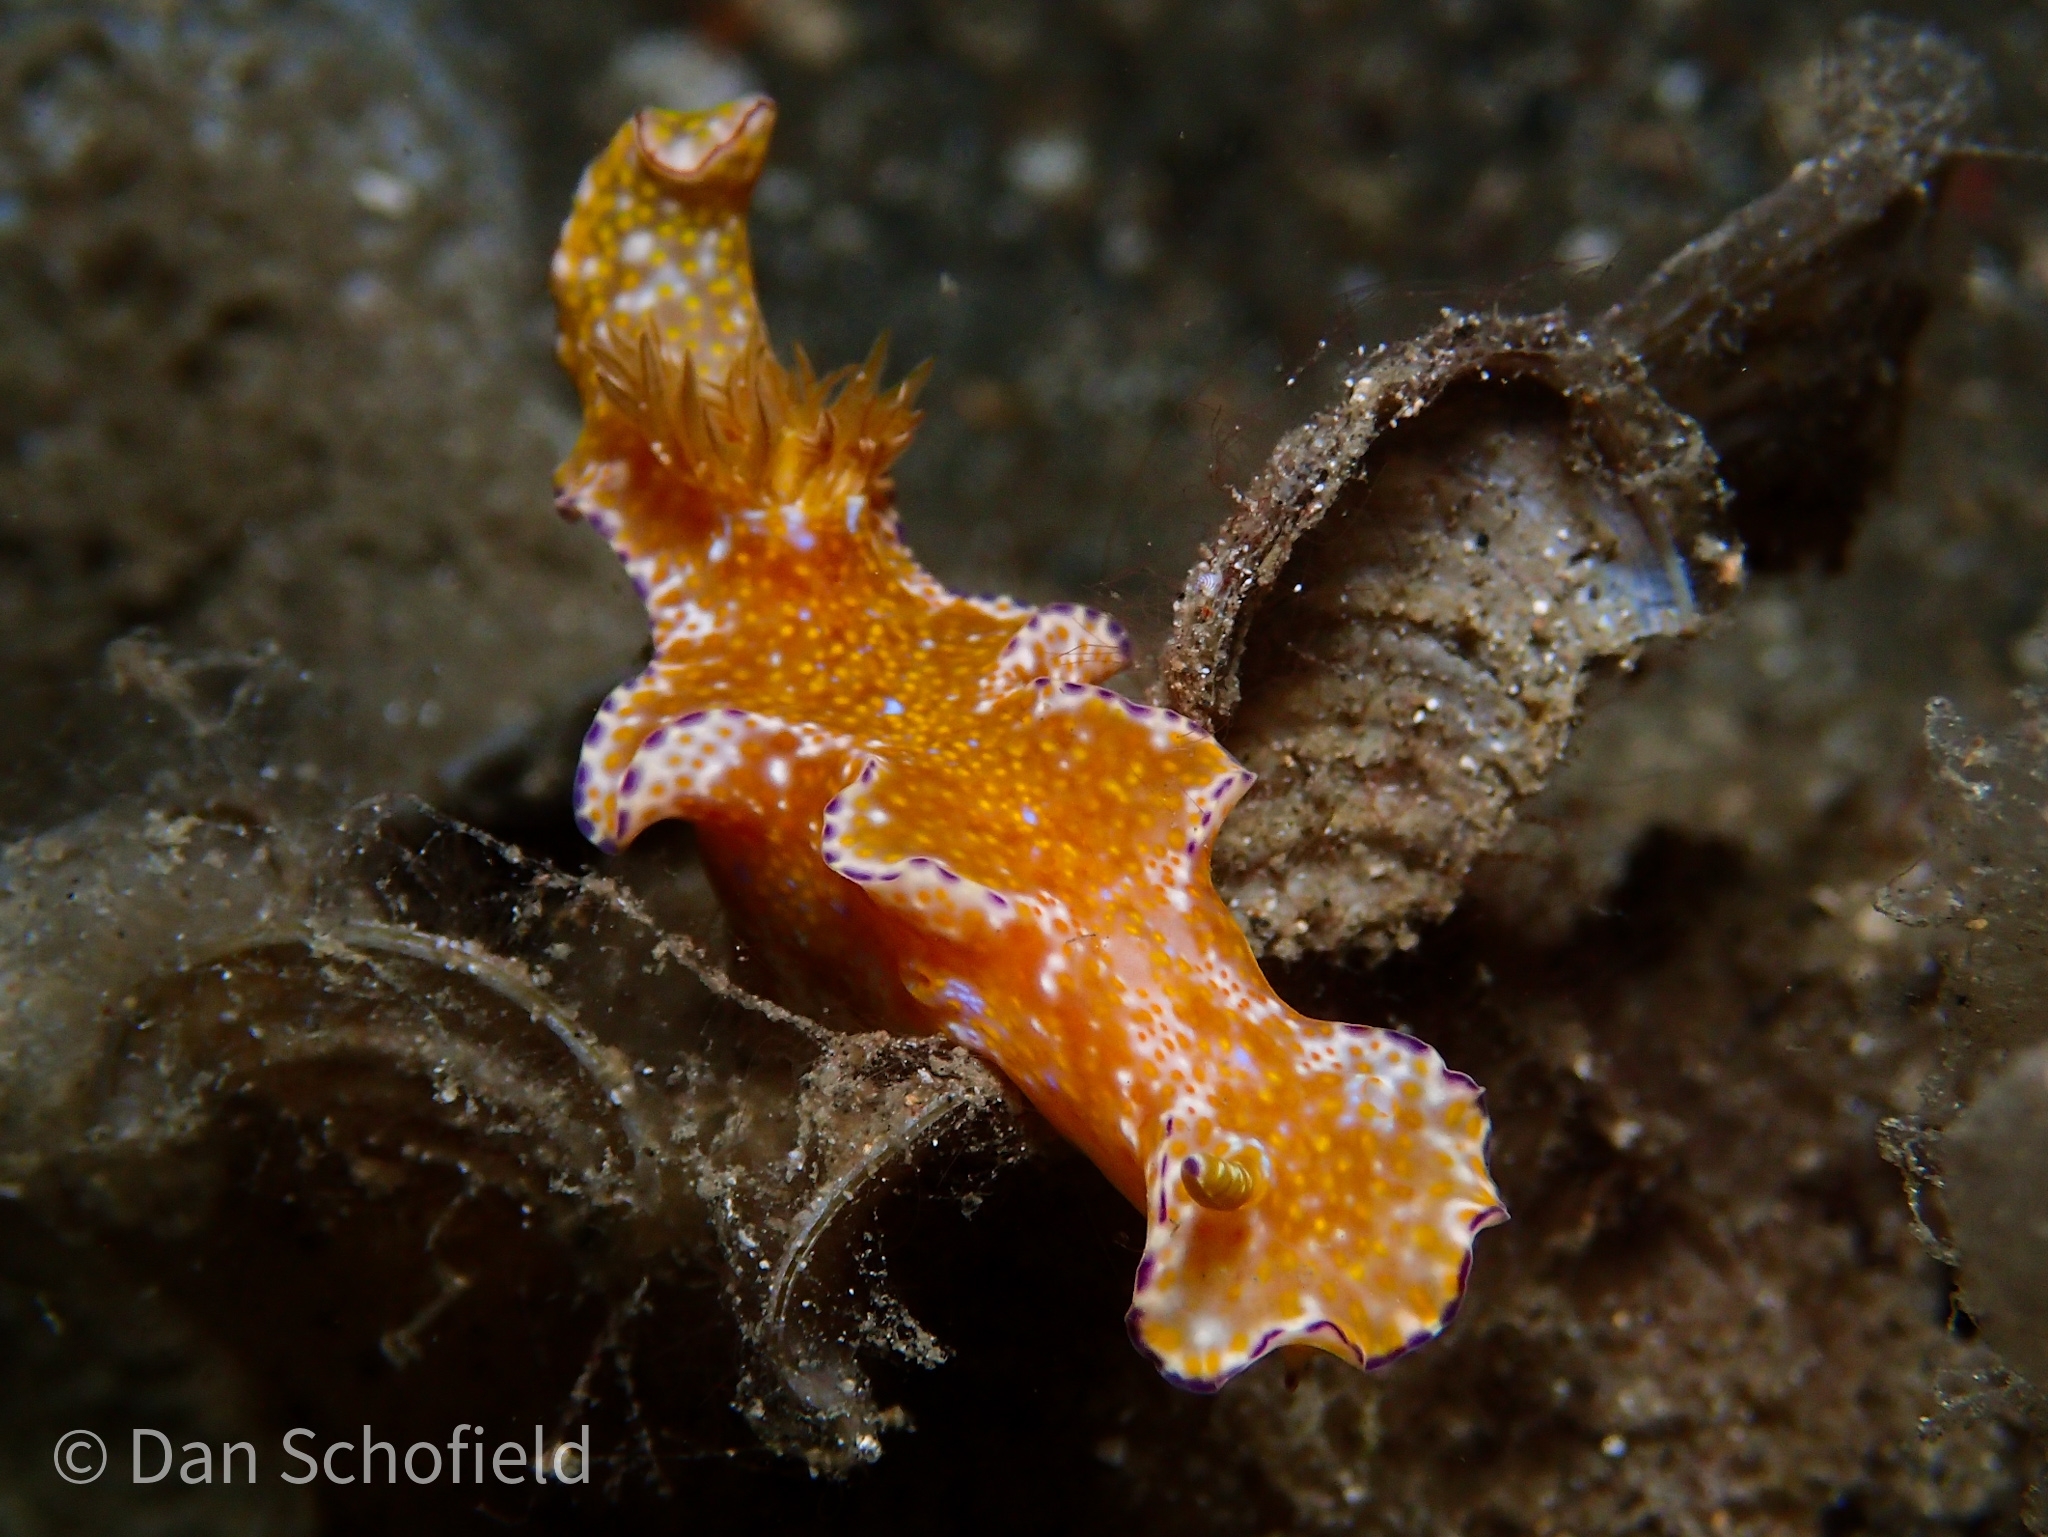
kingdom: Animalia
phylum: Mollusca
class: Gastropoda
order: Nudibranchia
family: Chromodorididae
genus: Ceratosoma
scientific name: Ceratosoma tenue
